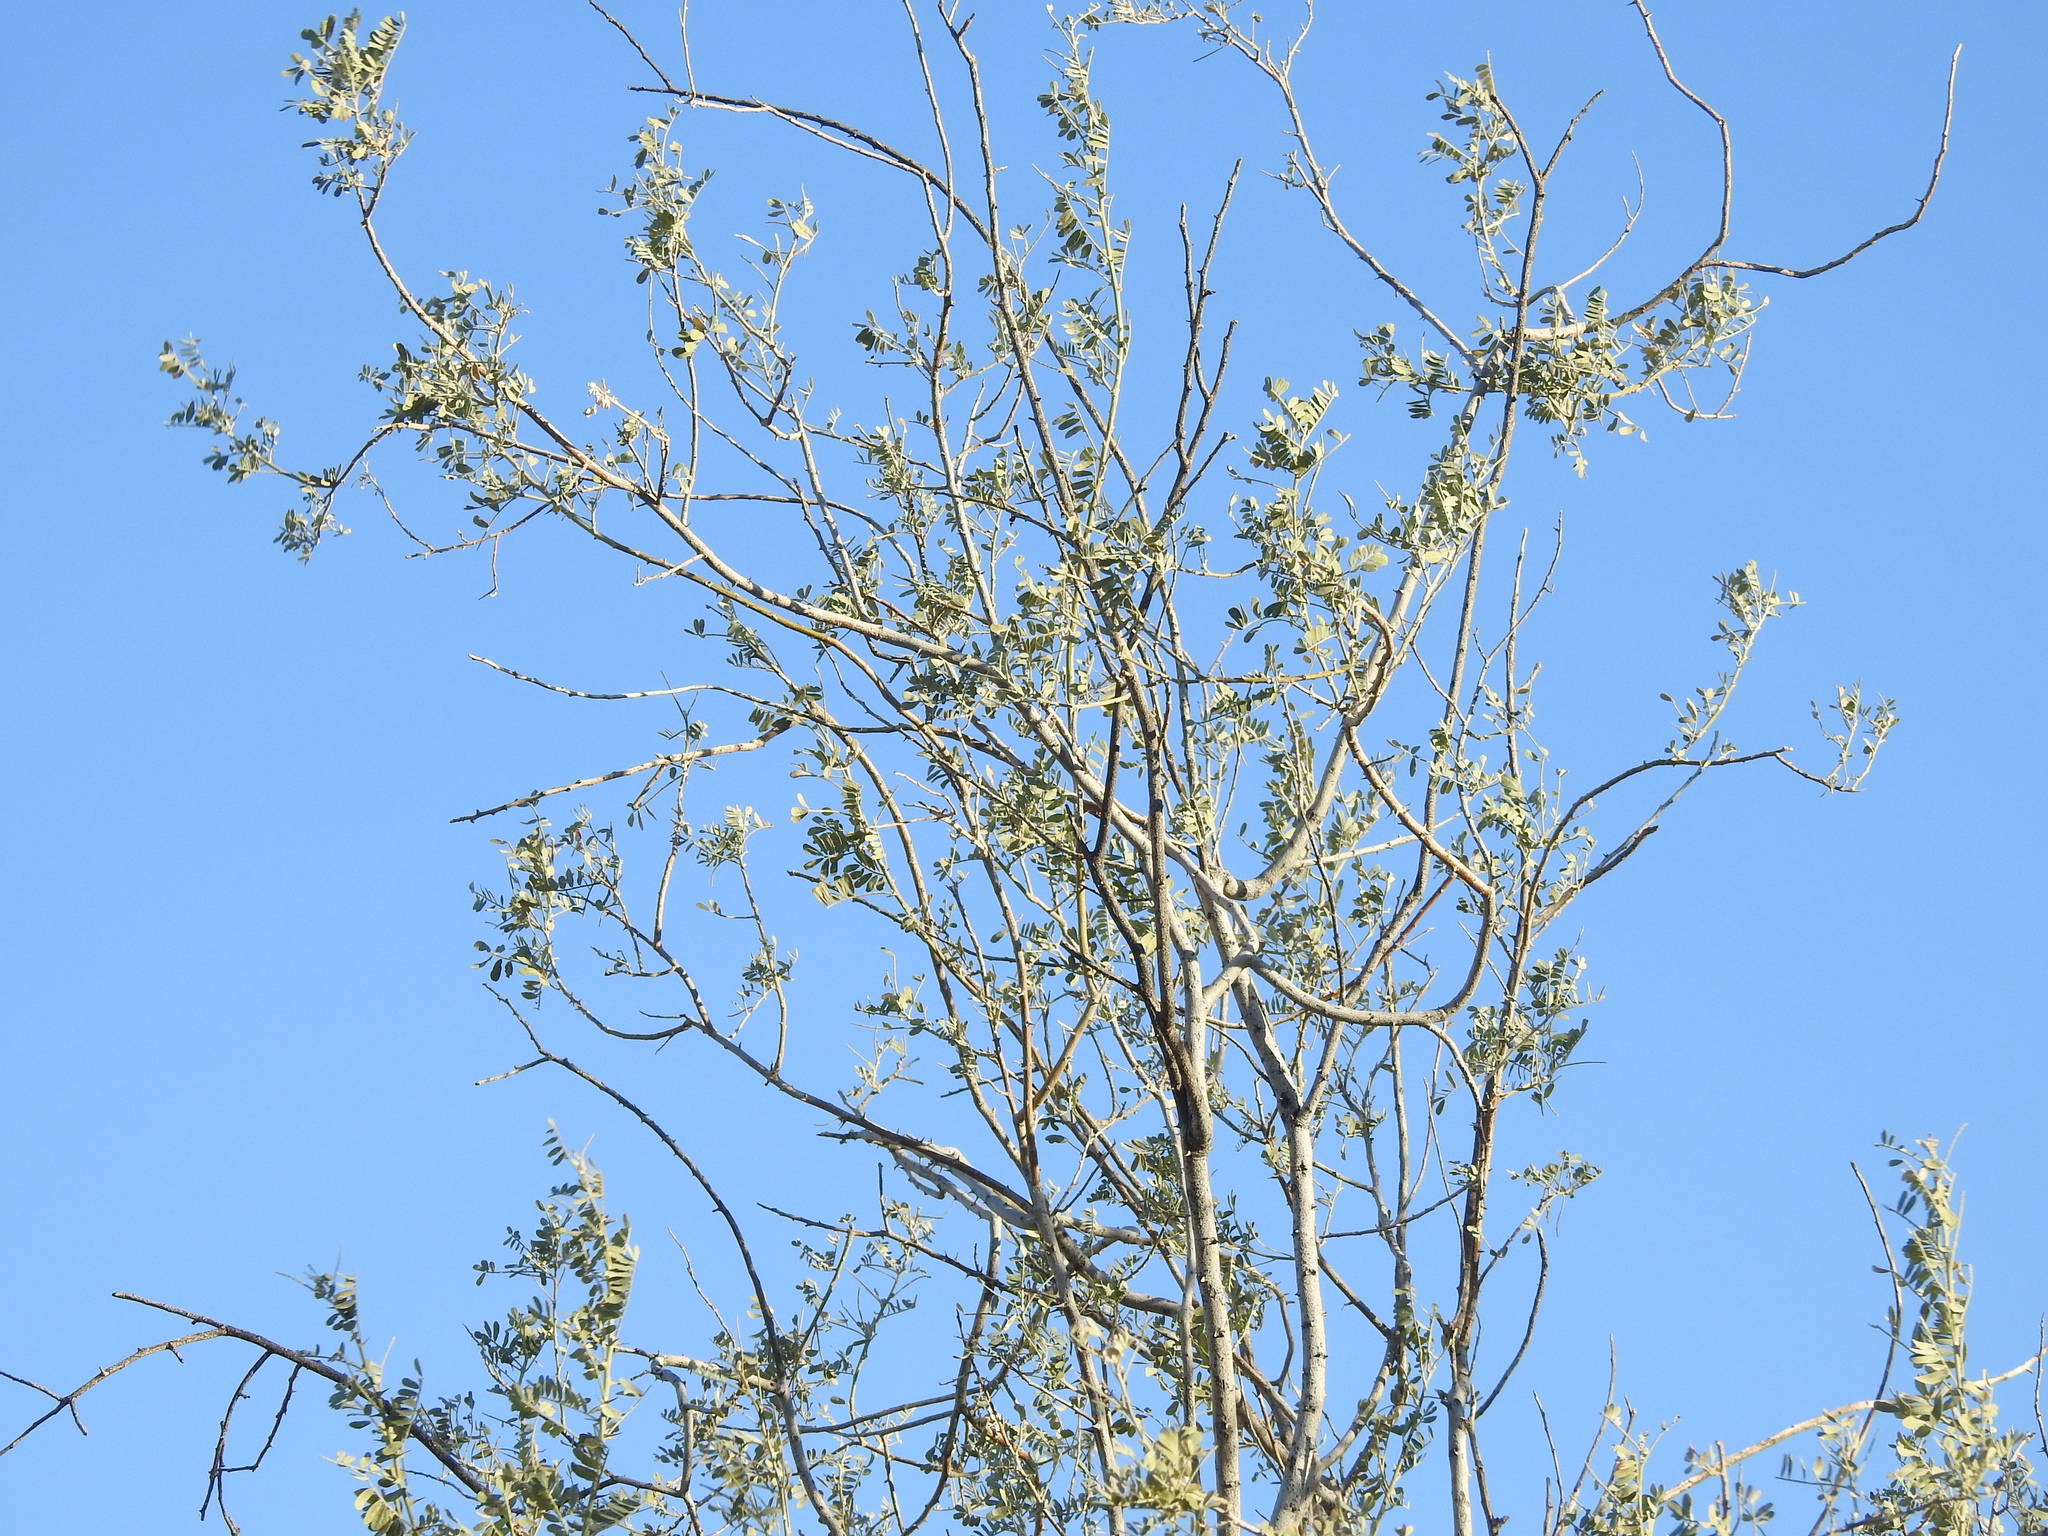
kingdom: Plantae
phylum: Tracheophyta
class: Magnoliopsida
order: Fabales
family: Fabaceae
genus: Olneya
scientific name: Olneya tesota
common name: Desert ironwood
